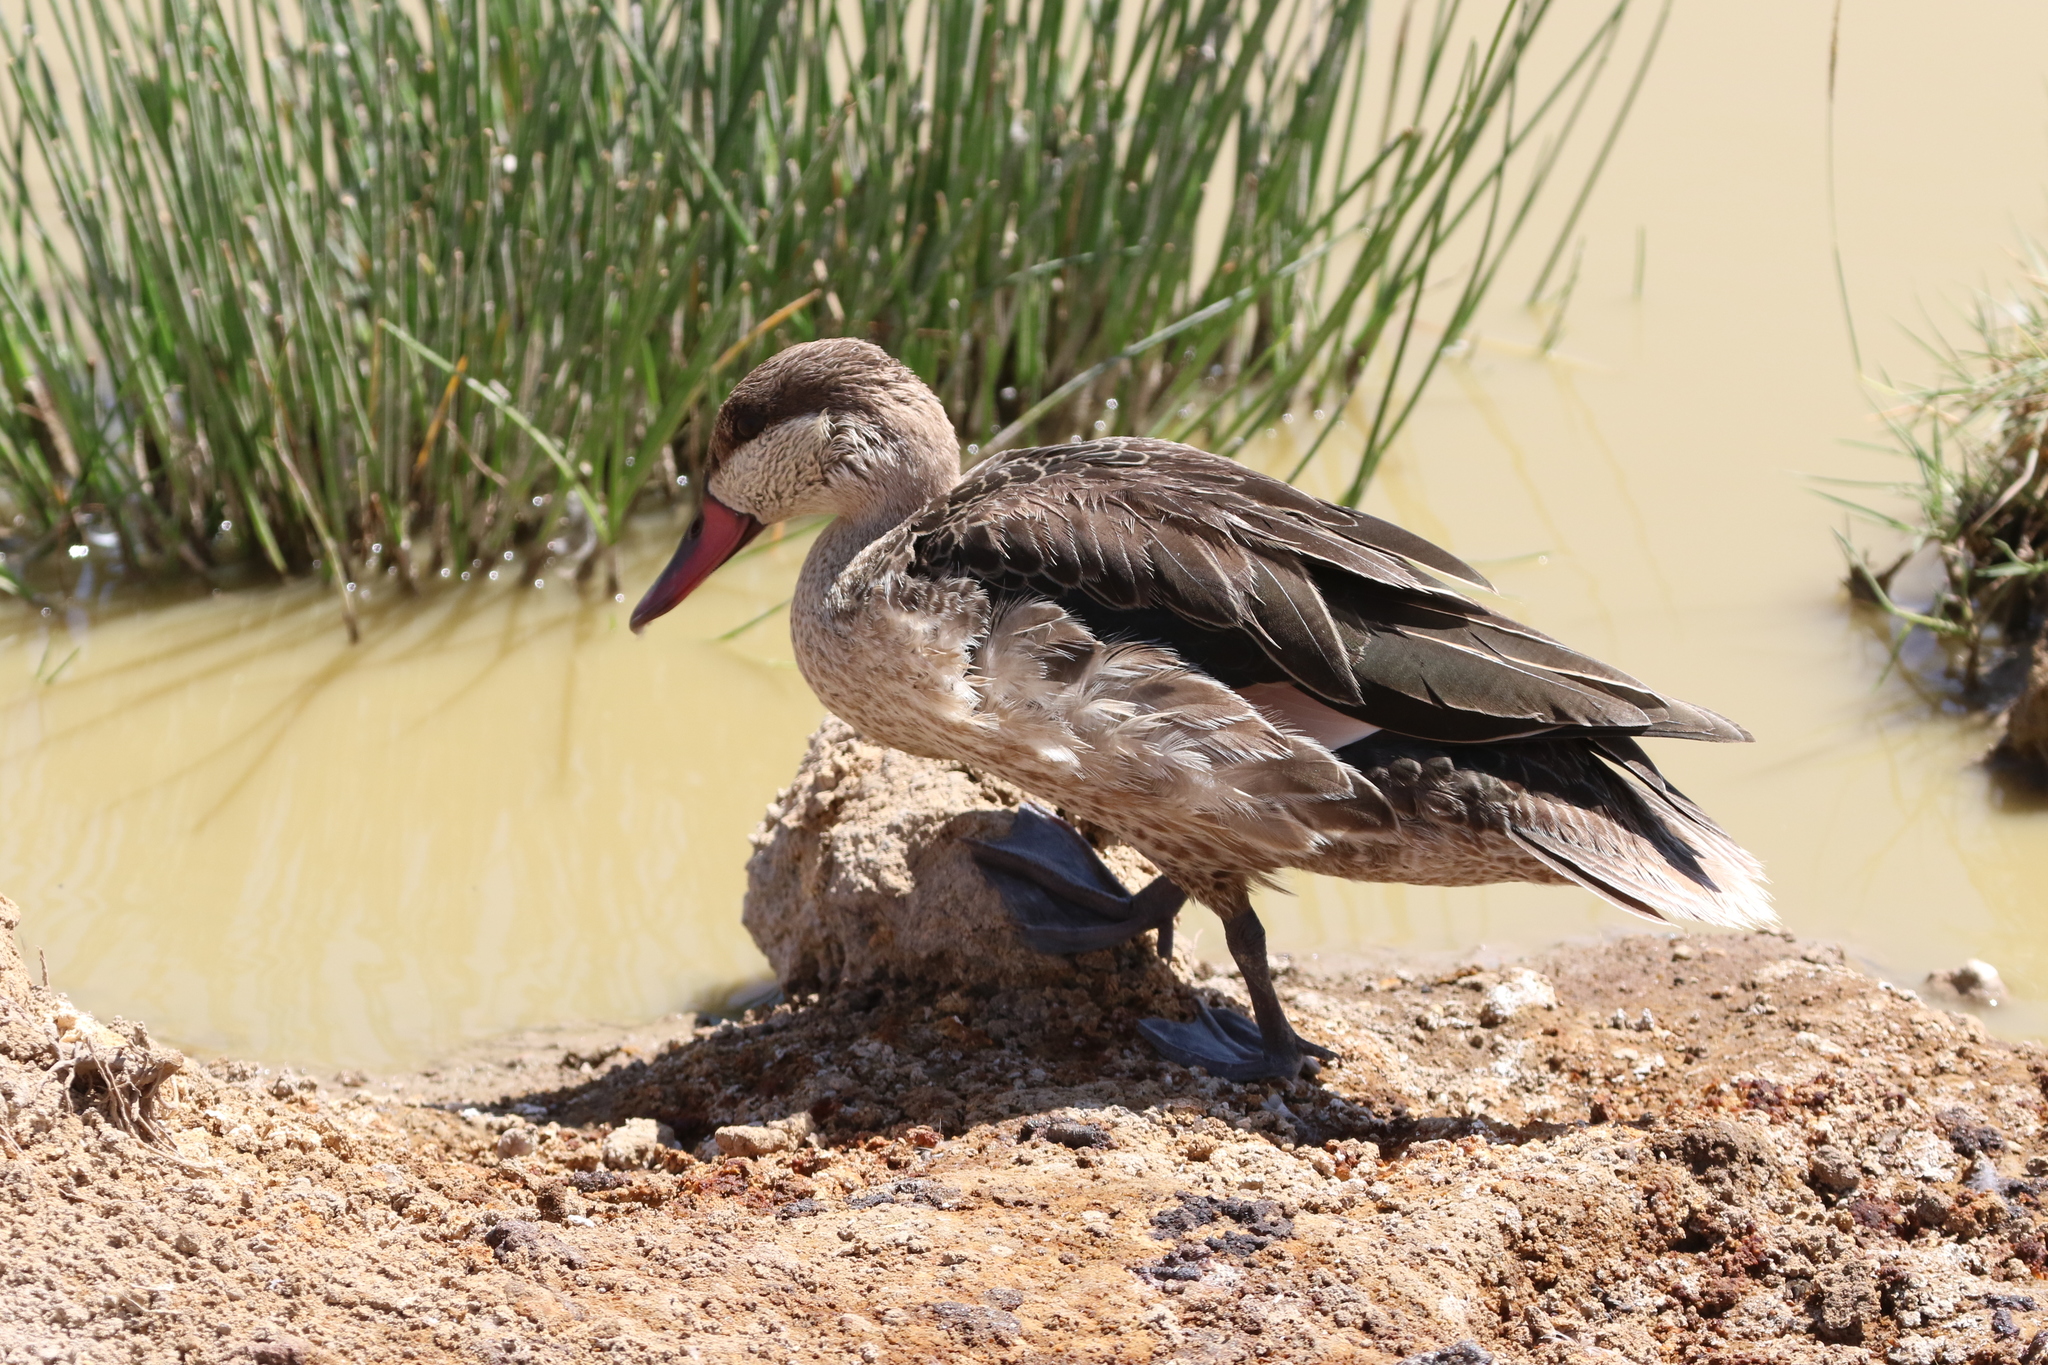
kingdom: Animalia
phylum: Chordata
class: Aves
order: Anseriformes
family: Anatidae
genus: Anas
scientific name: Anas erythrorhyncha
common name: Red-billed teal
